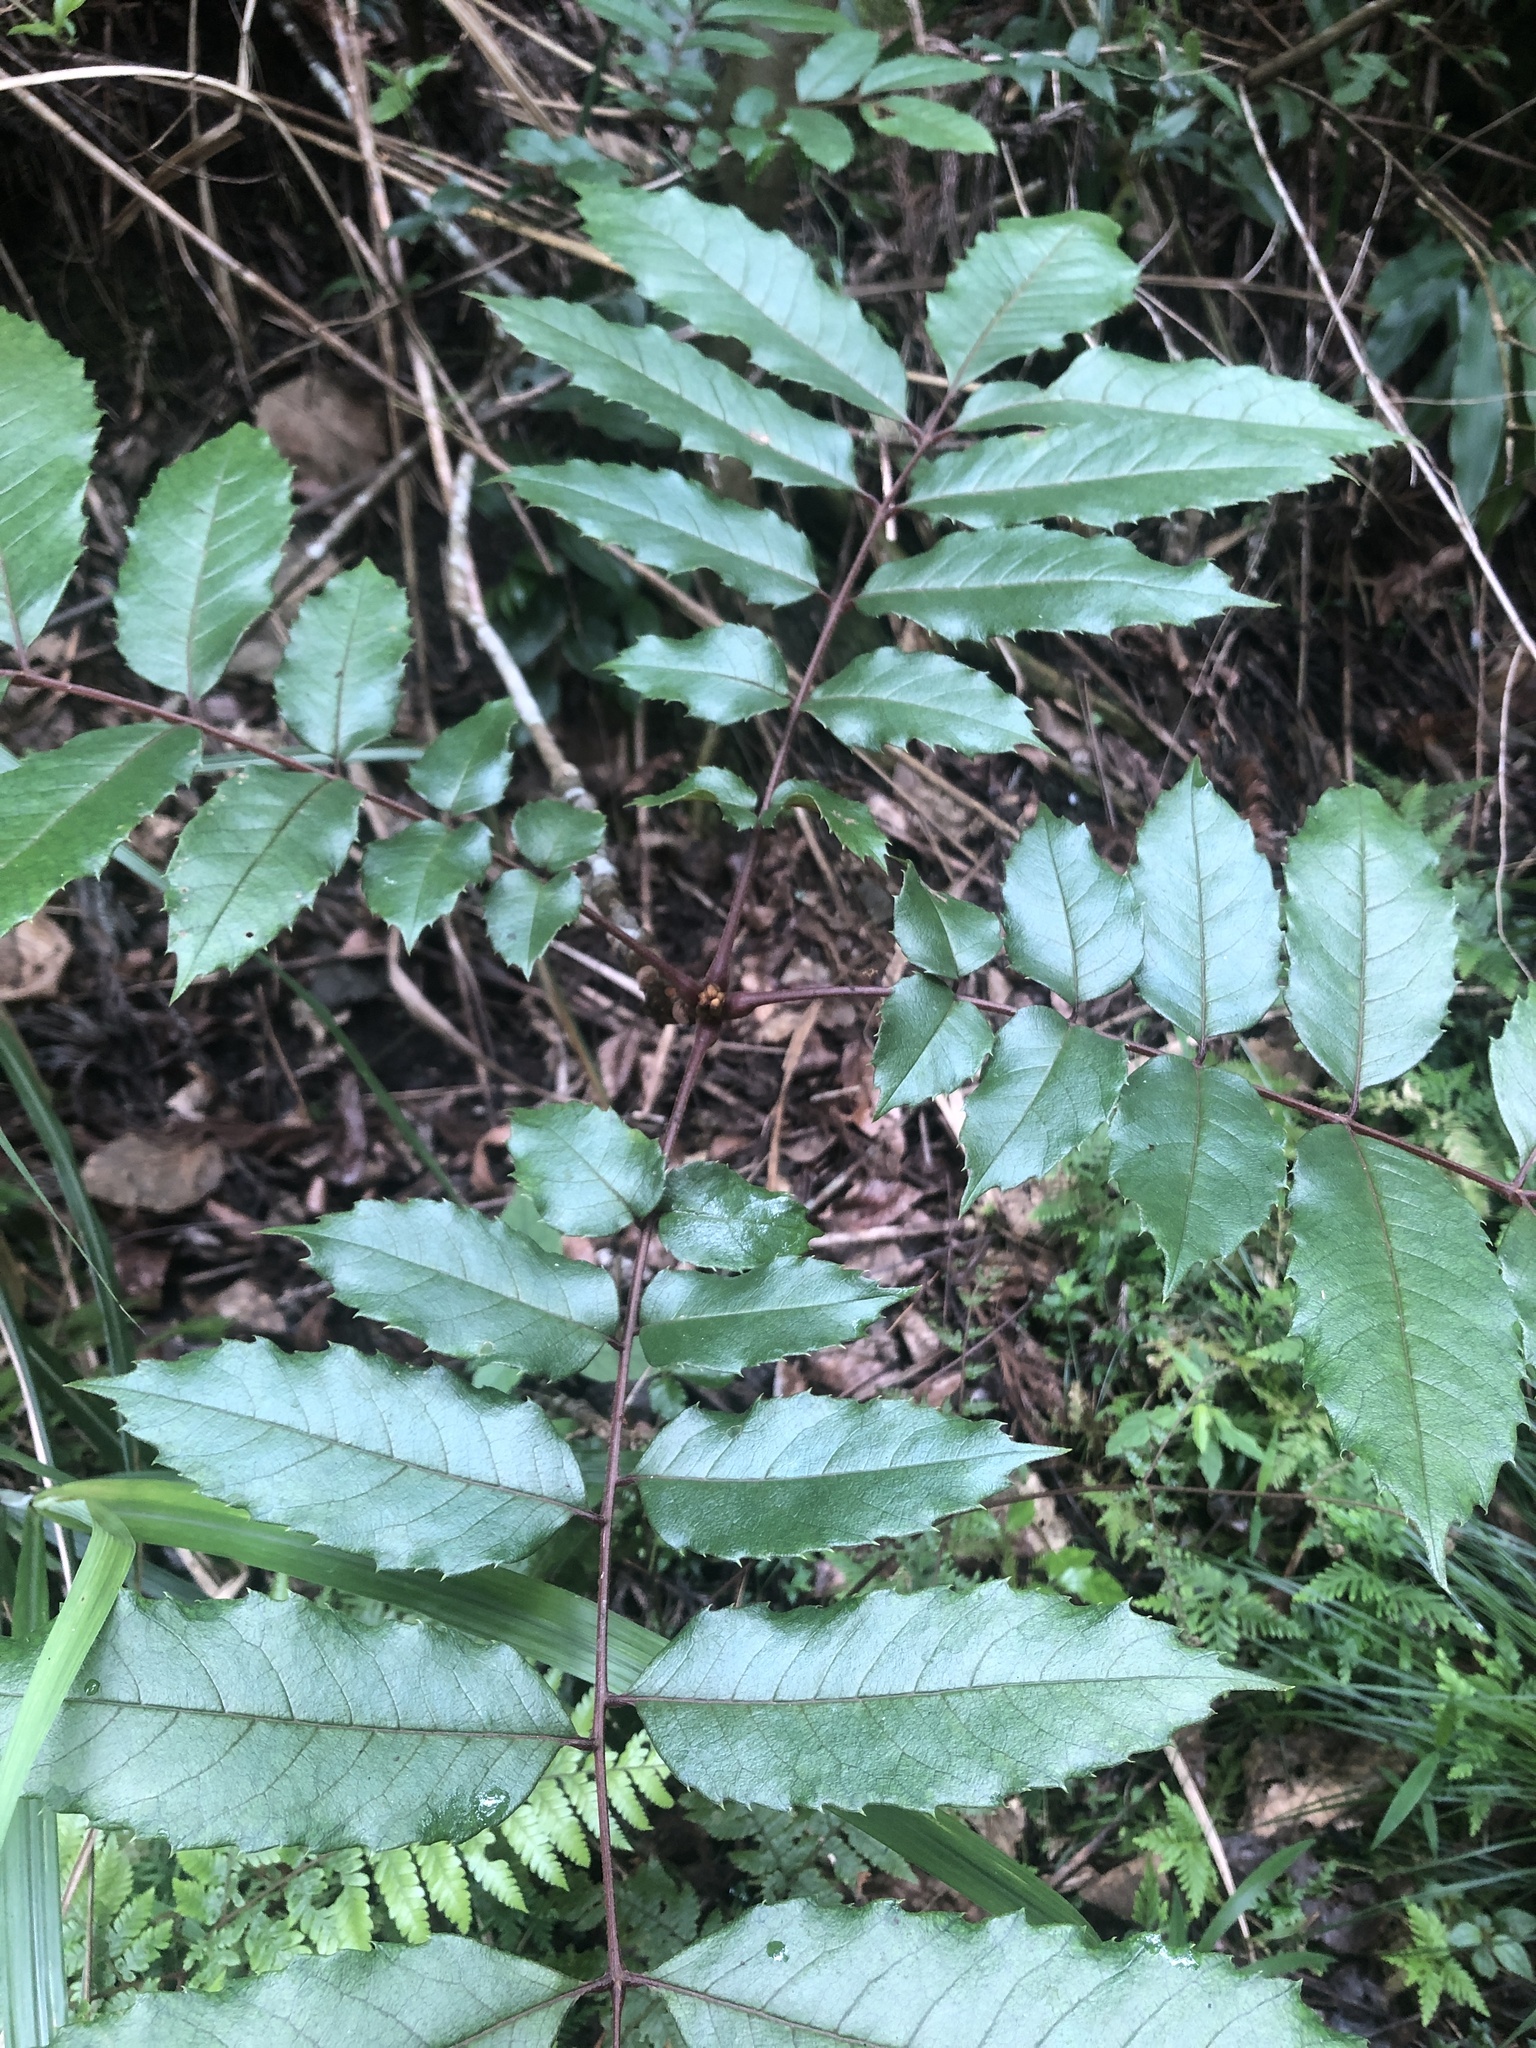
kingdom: Plantae
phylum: Tracheophyta
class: Magnoliopsida
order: Proteales
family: Sabiaceae
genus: Meliosma
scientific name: Meliosma rhoifolia
